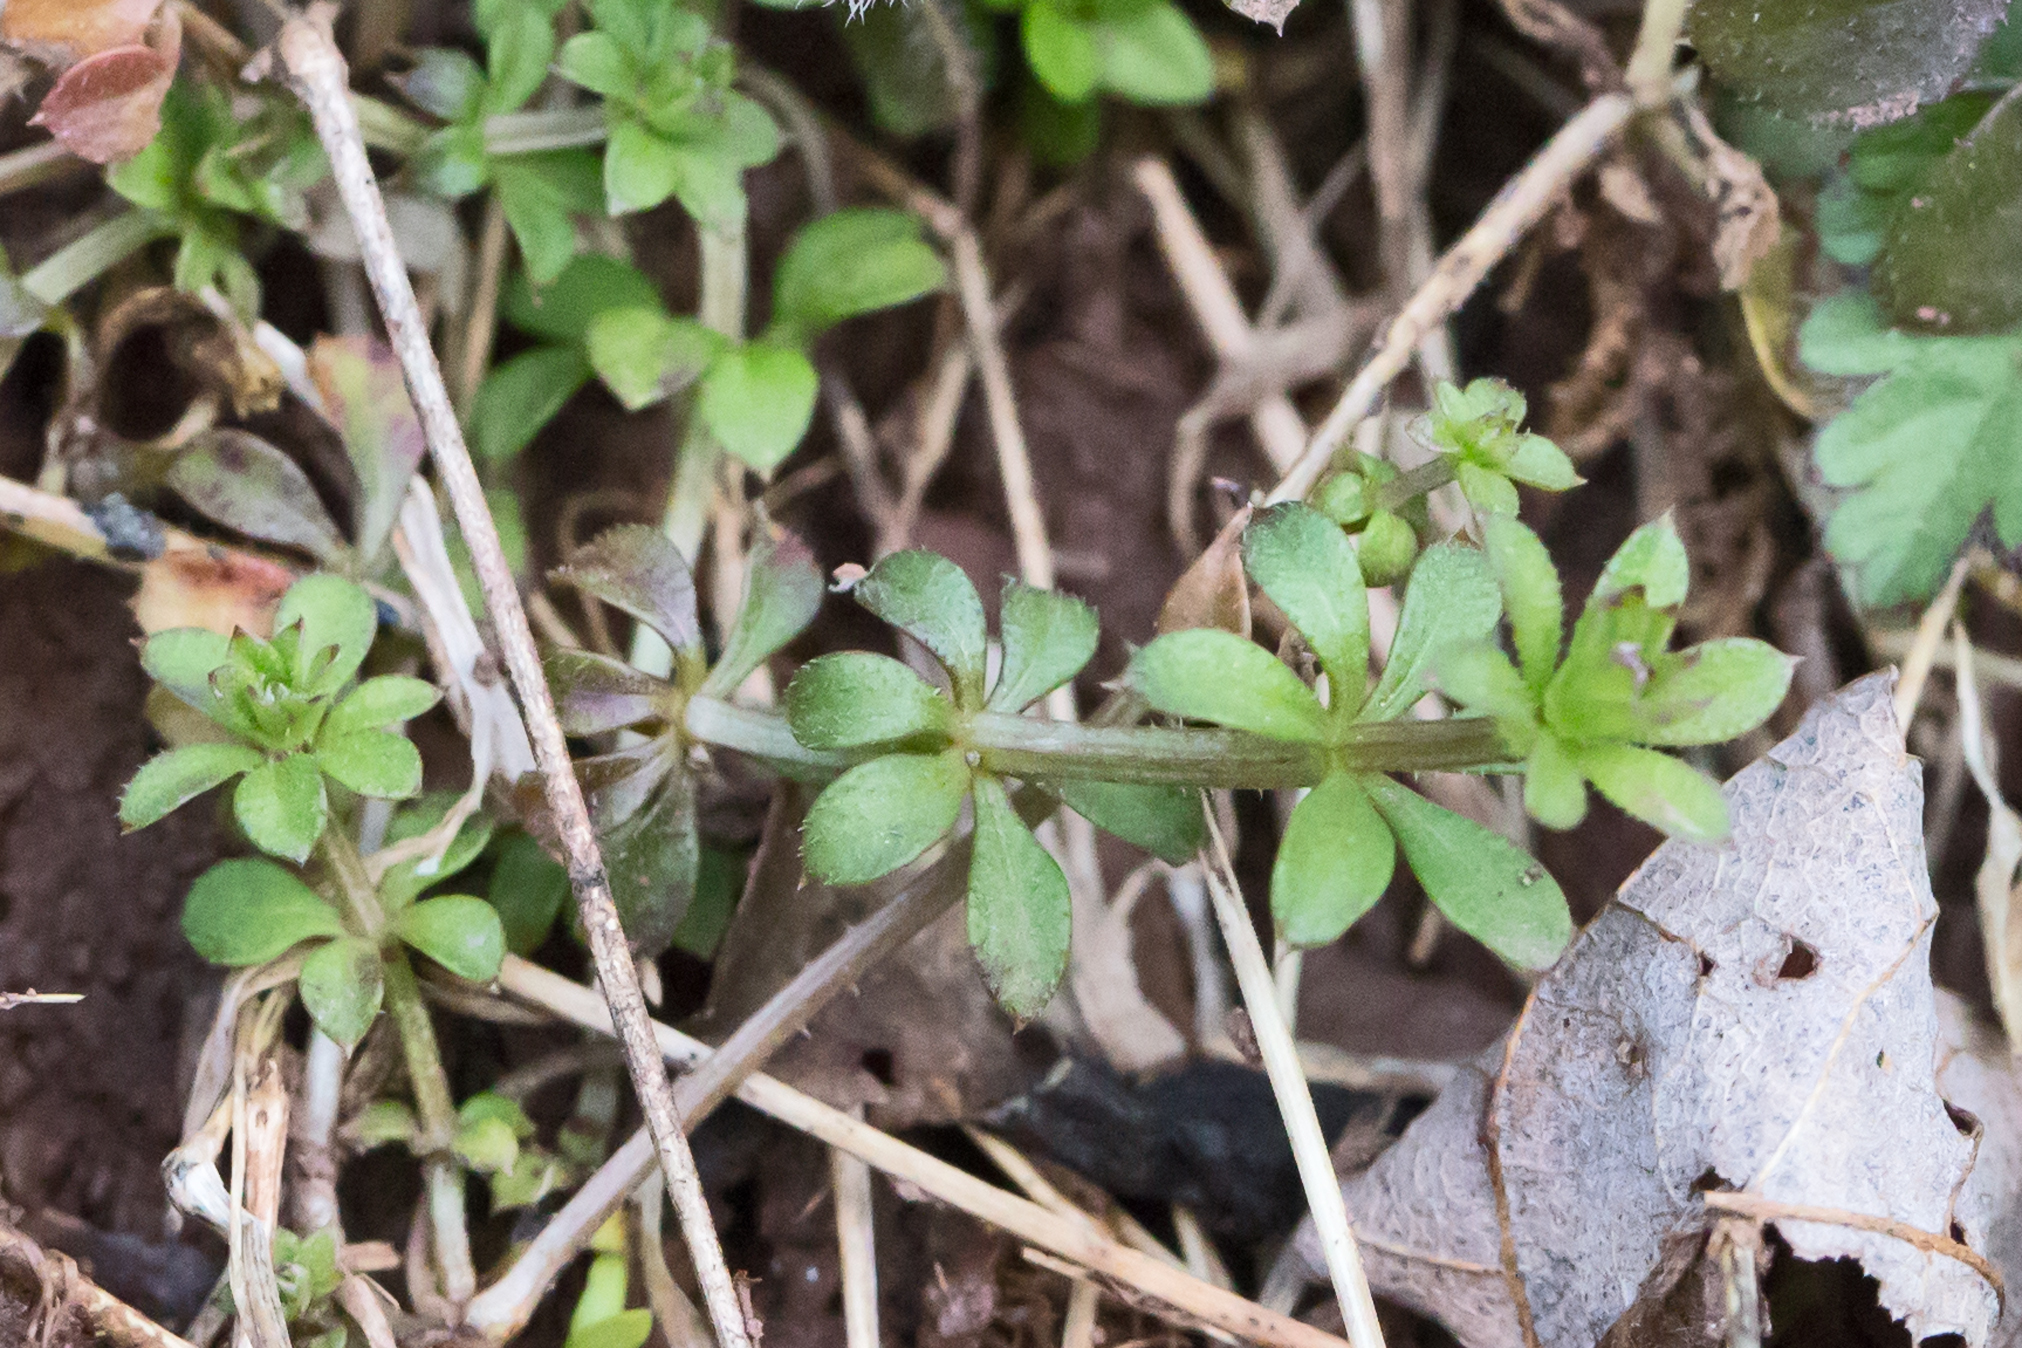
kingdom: Plantae
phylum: Tracheophyta
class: Magnoliopsida
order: Gentianales
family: Rubiaceae
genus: Galium
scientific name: Galium aparine
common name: Cleavers
